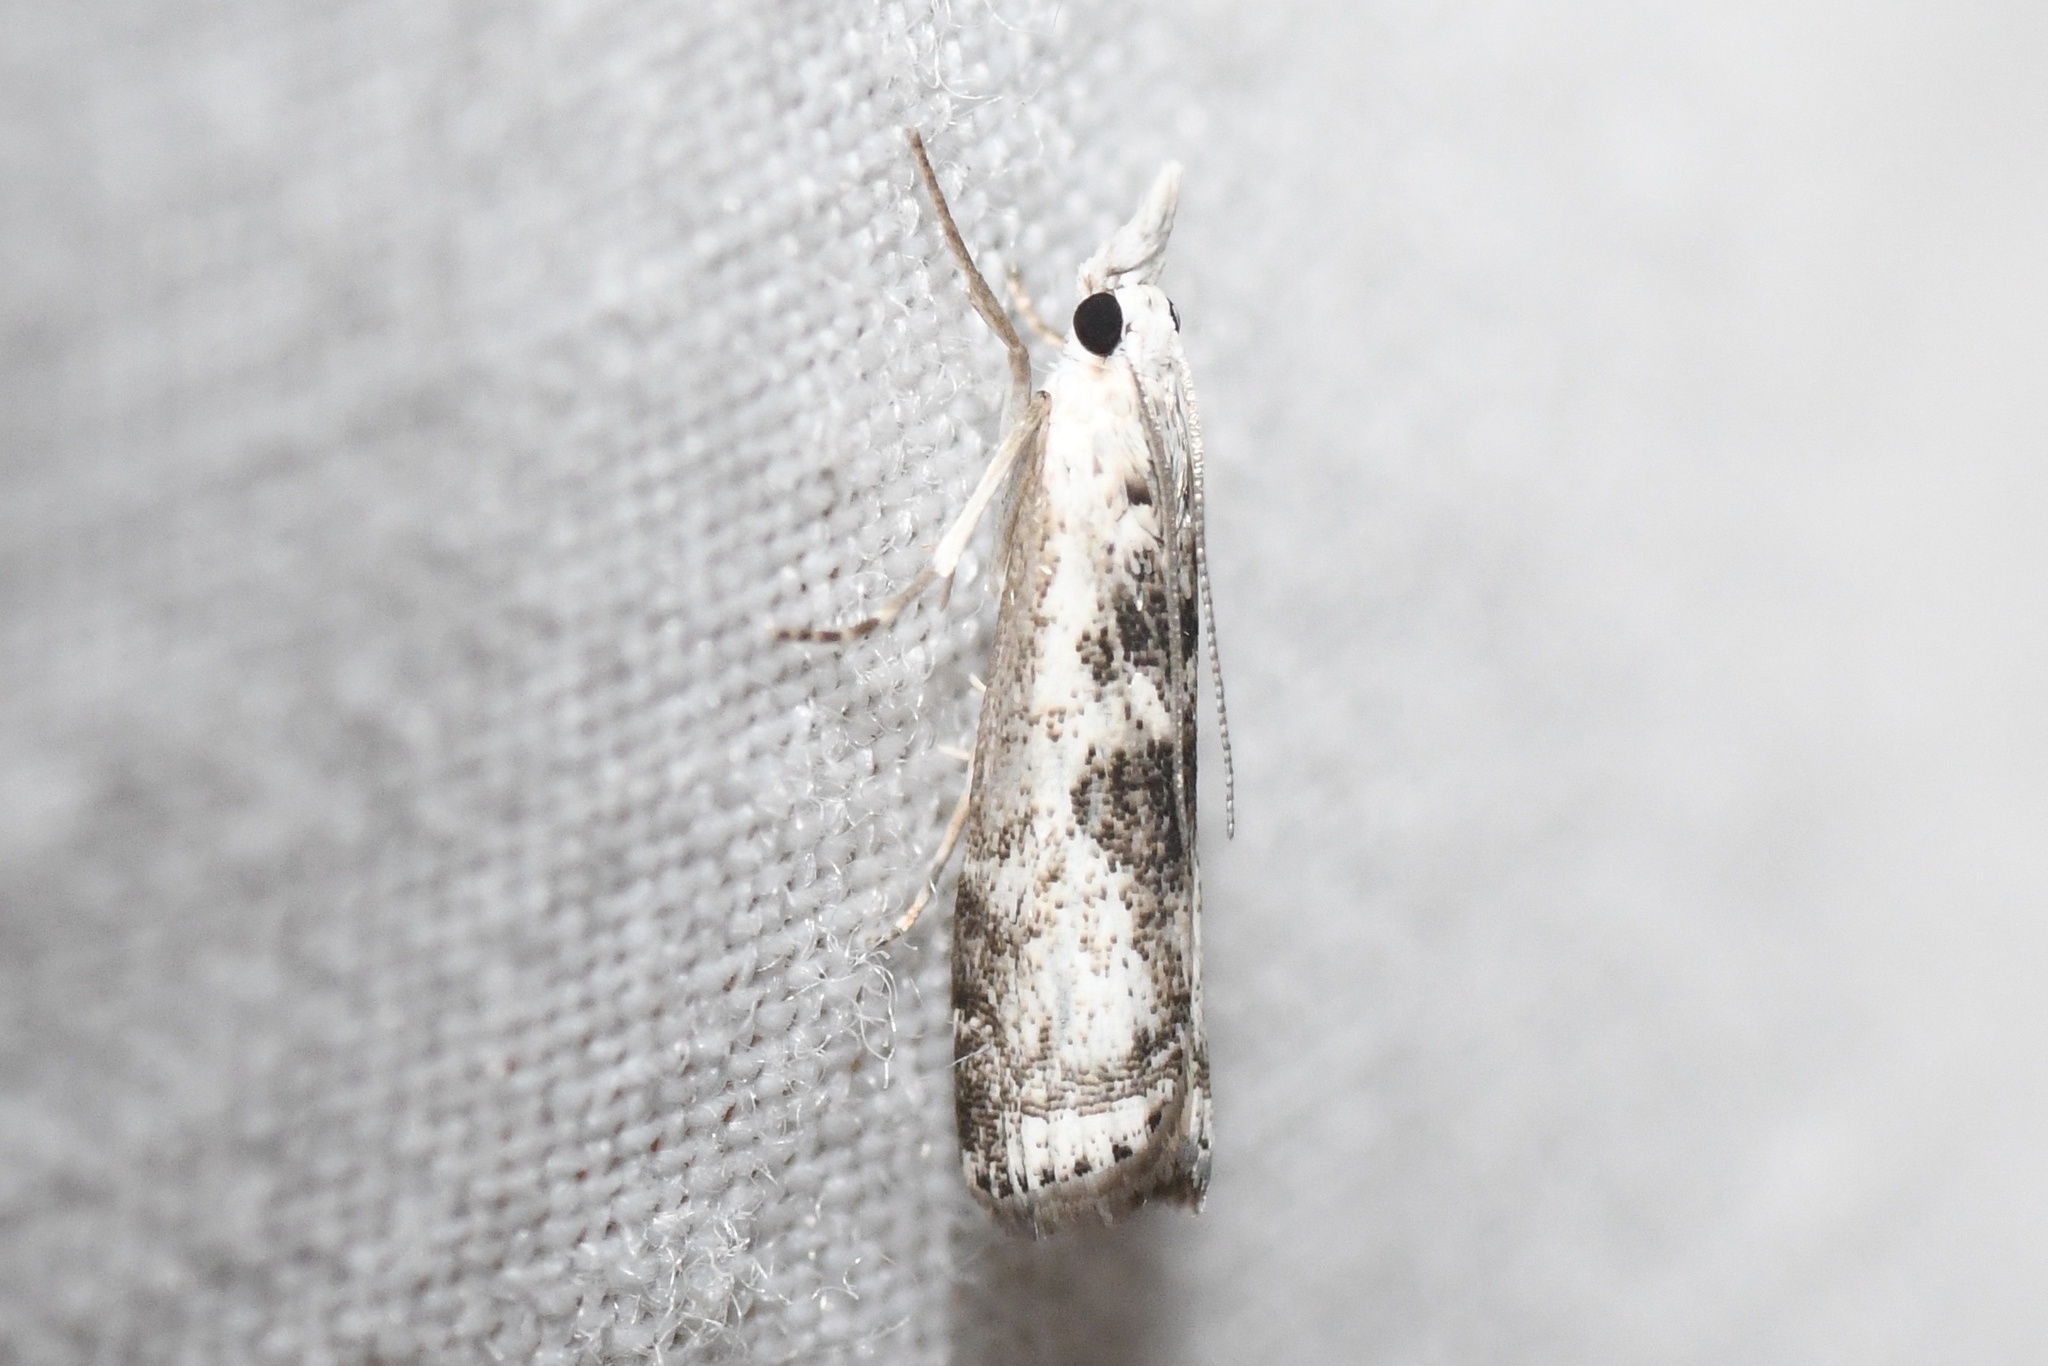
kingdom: Animalia
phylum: Arthropoda
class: Insecta
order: Lepidoptera
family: Crambidae
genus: Microcrambus
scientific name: Microcrambus immunellus
